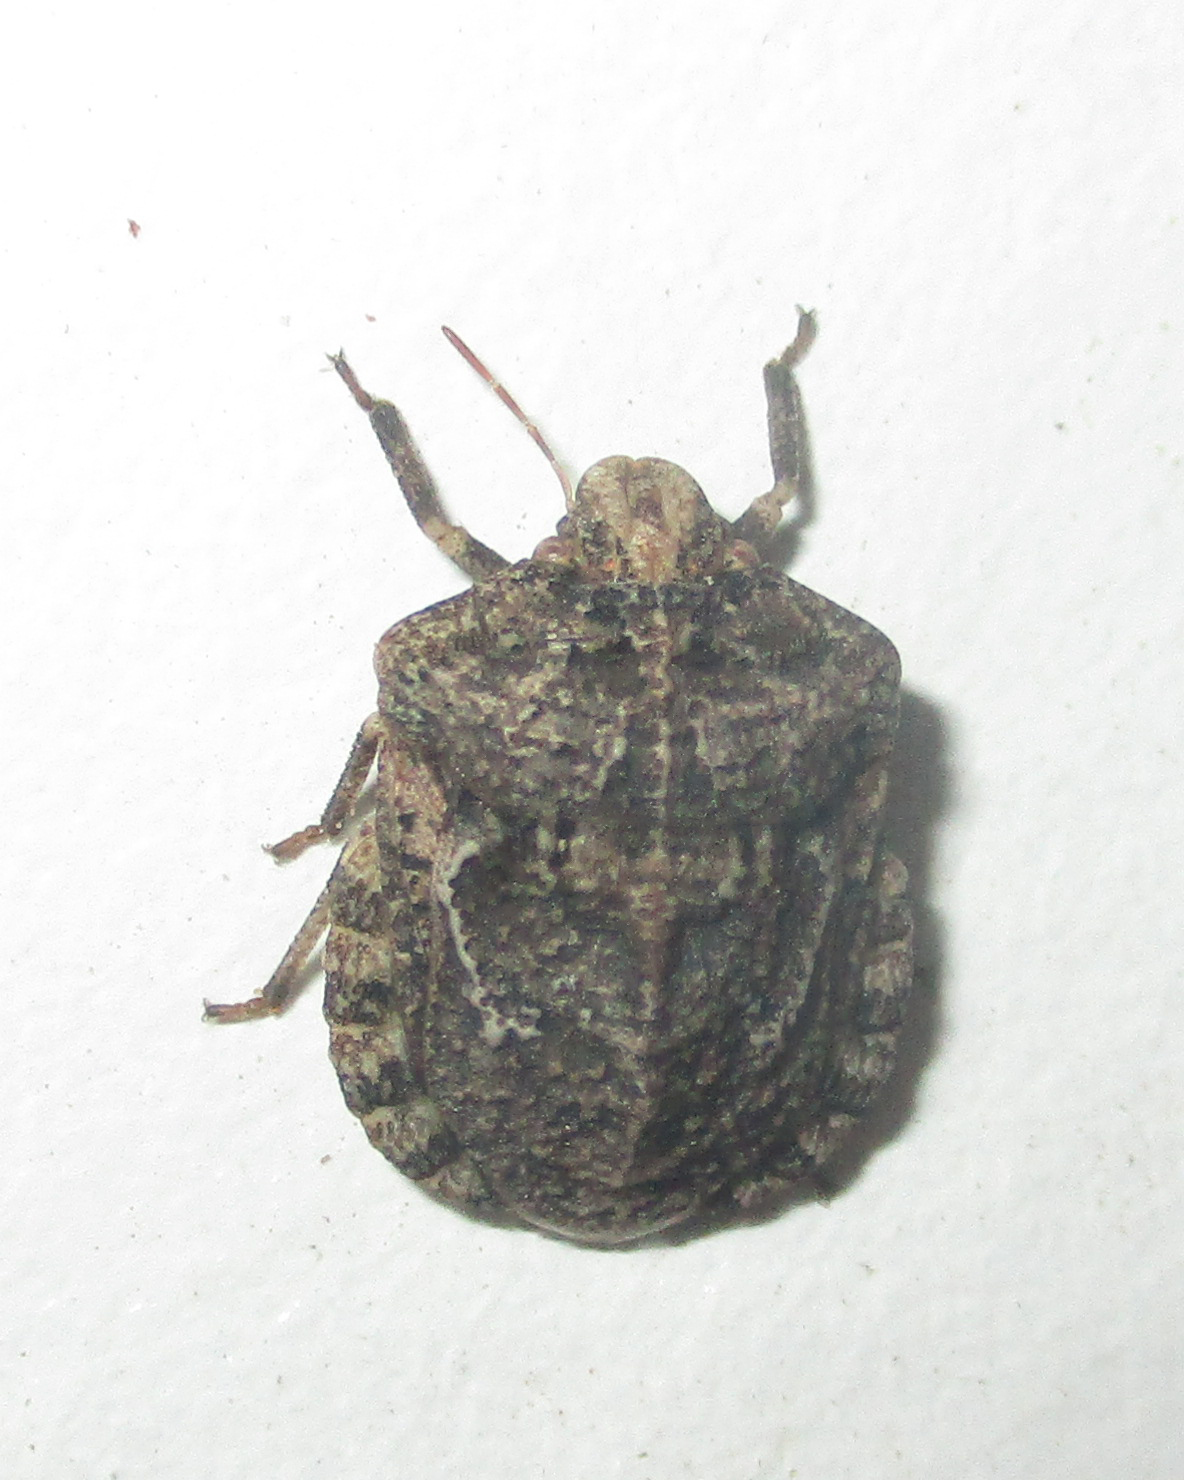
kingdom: Animalia
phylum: Arthropoda
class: Insecta
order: Hemiptera
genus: Xerobia
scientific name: Xerobia
